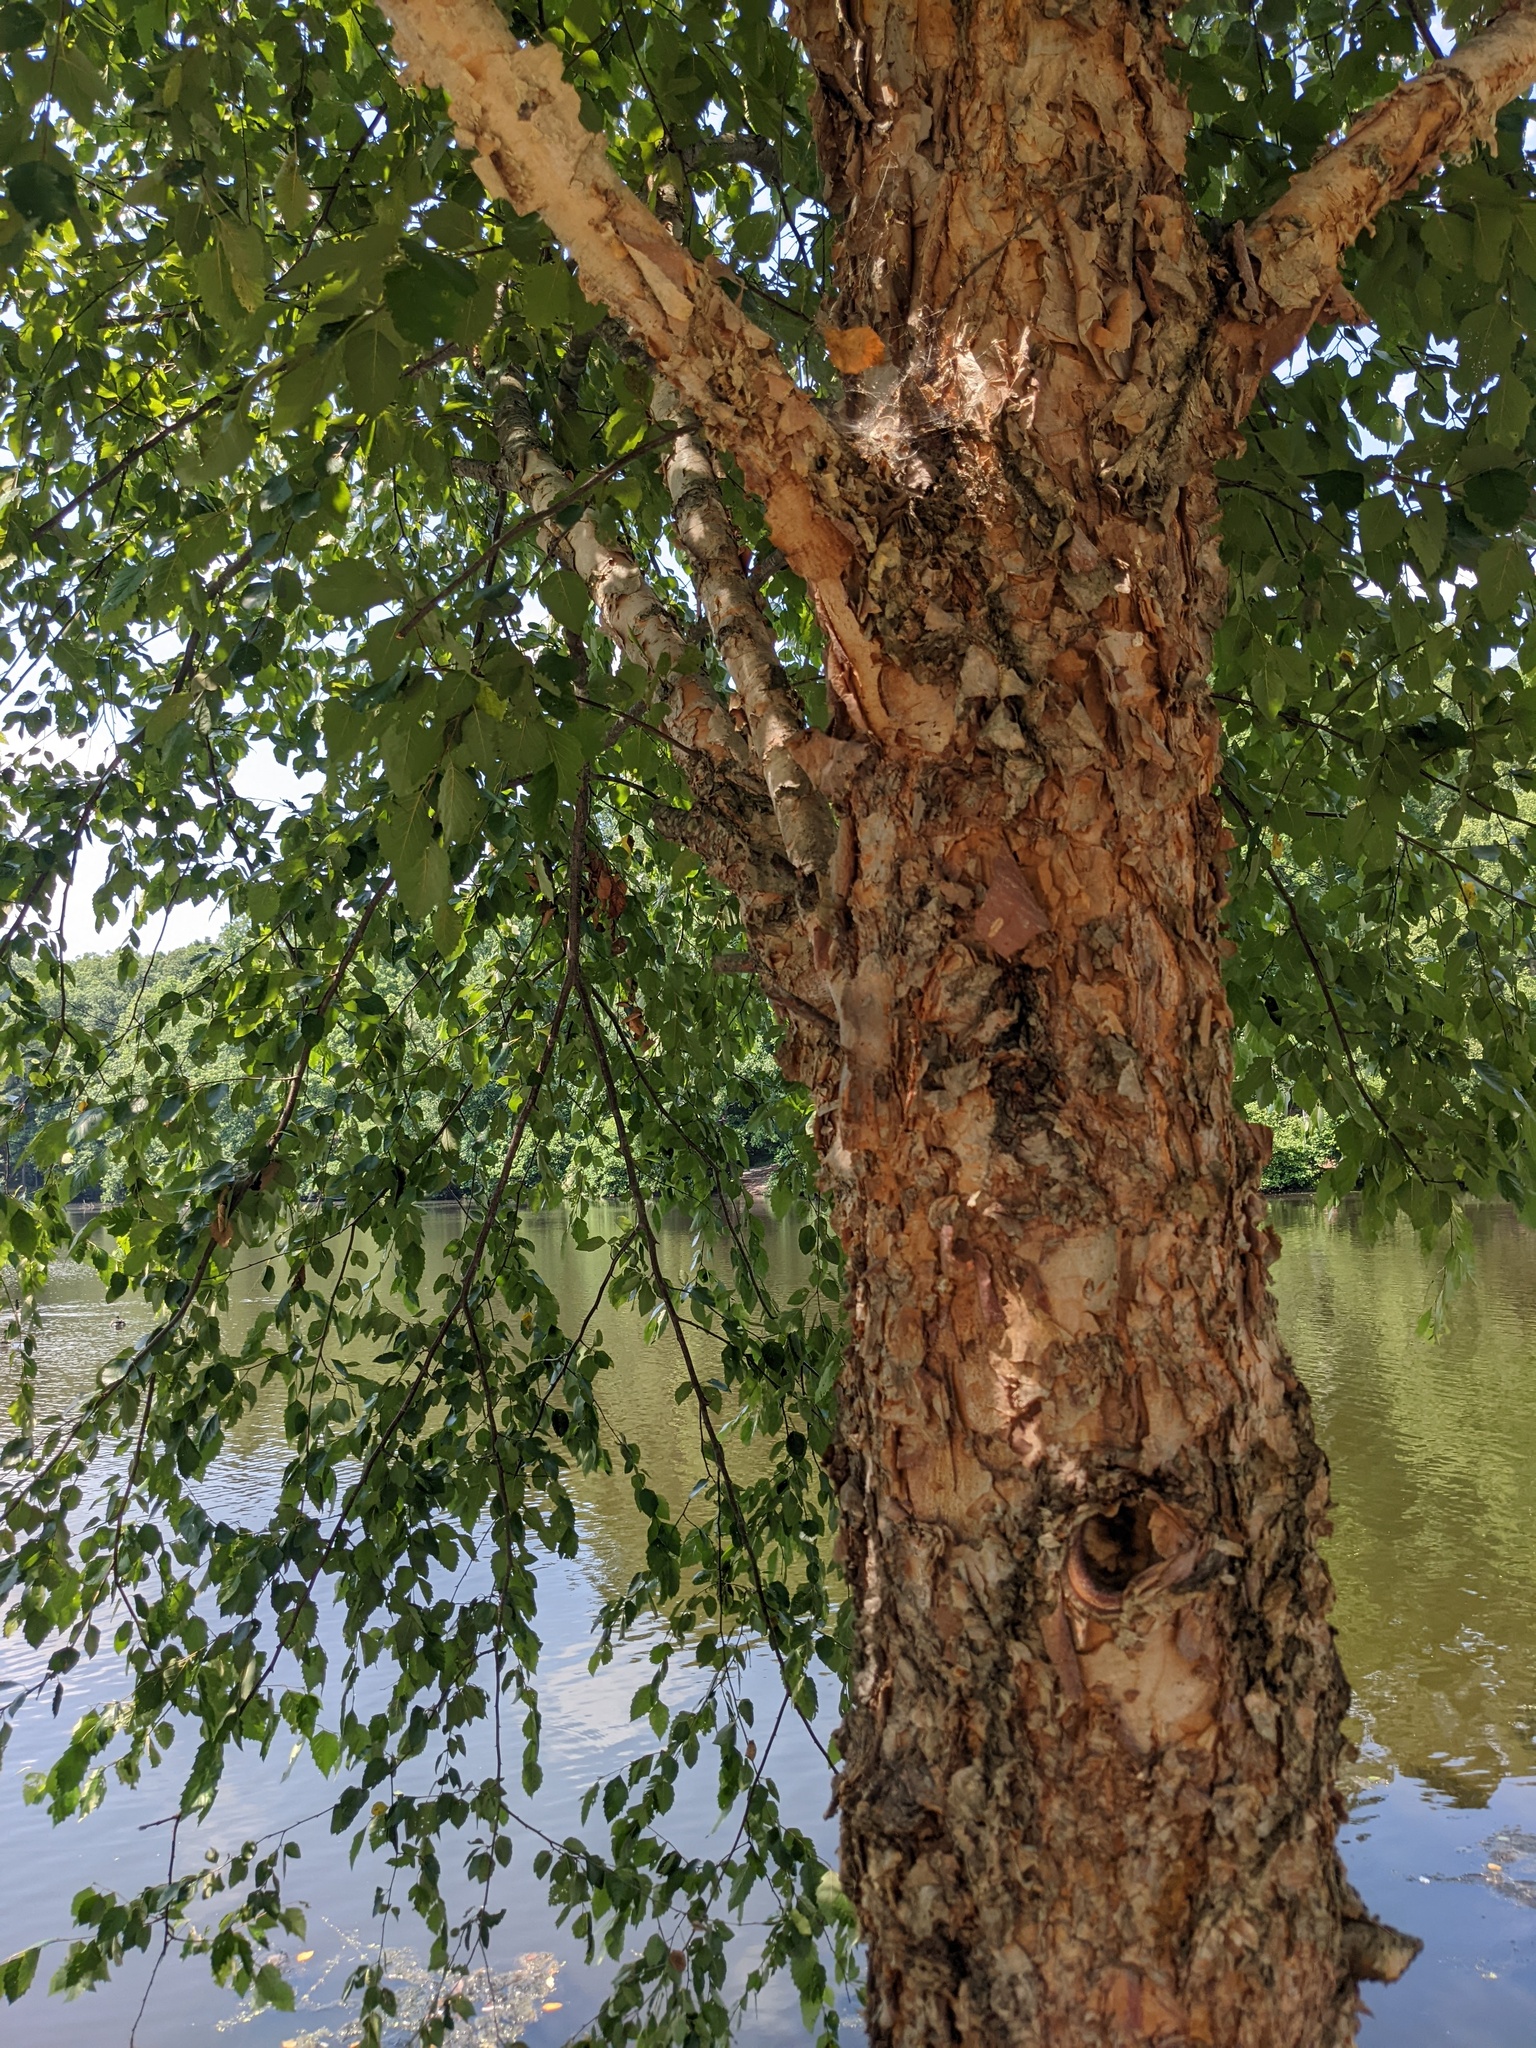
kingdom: Plantae
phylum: Tracheophyta
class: Magnoliopsida
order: Fagales
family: Betulaceae
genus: Betula
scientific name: Betula nigra
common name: Black birch
